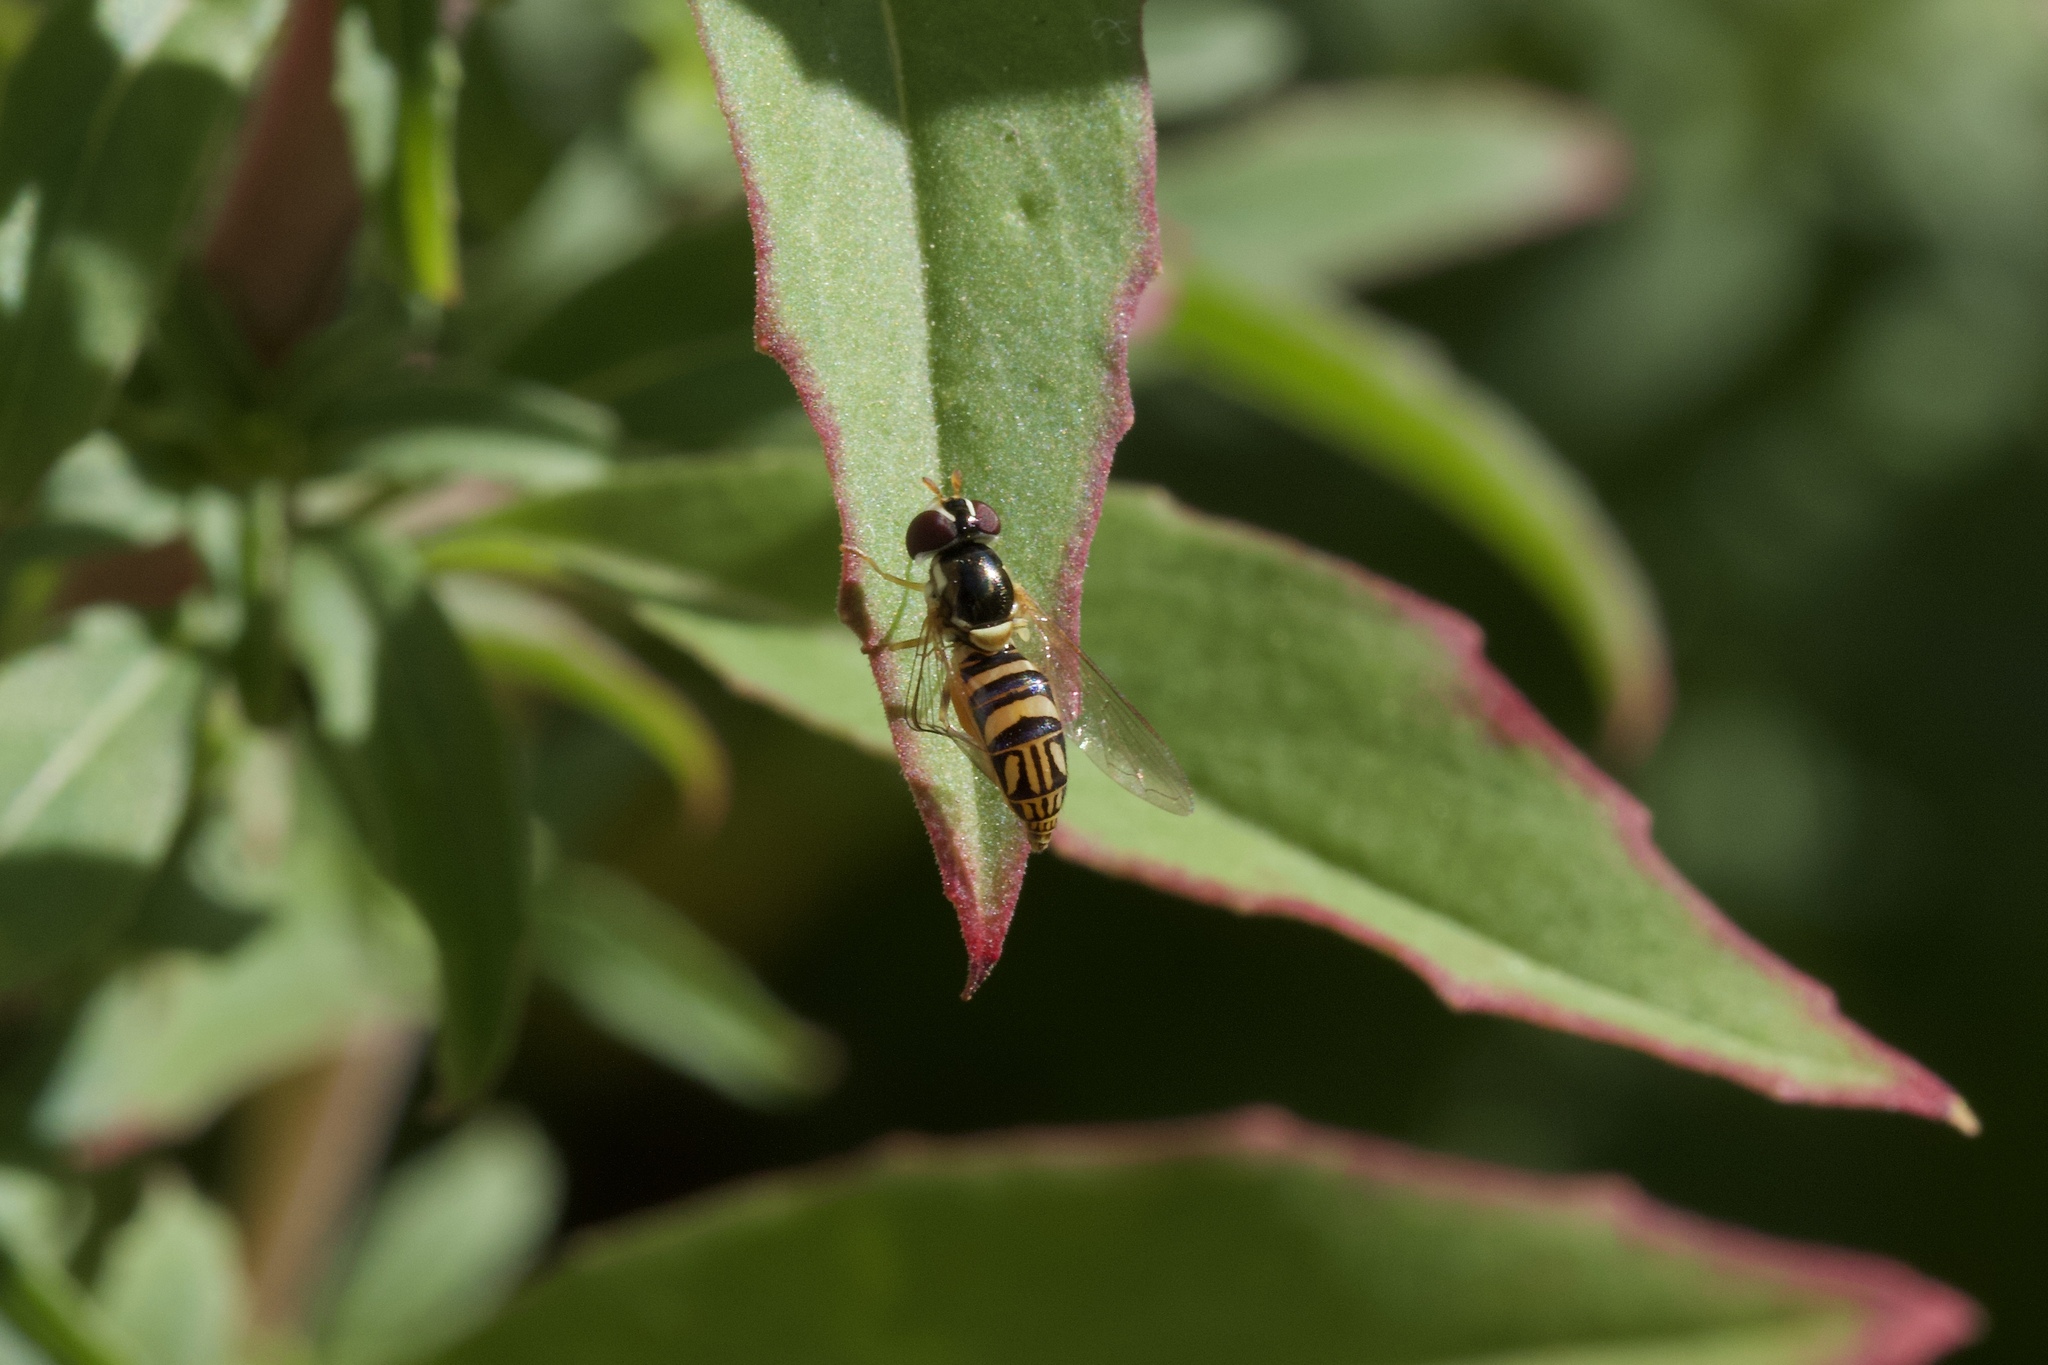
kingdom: Animalia
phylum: Arthropoda
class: Insecta
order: Diptera
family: Syrphidae
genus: Allograpta
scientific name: Allograpta obliqua
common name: Common oblique syrphid
